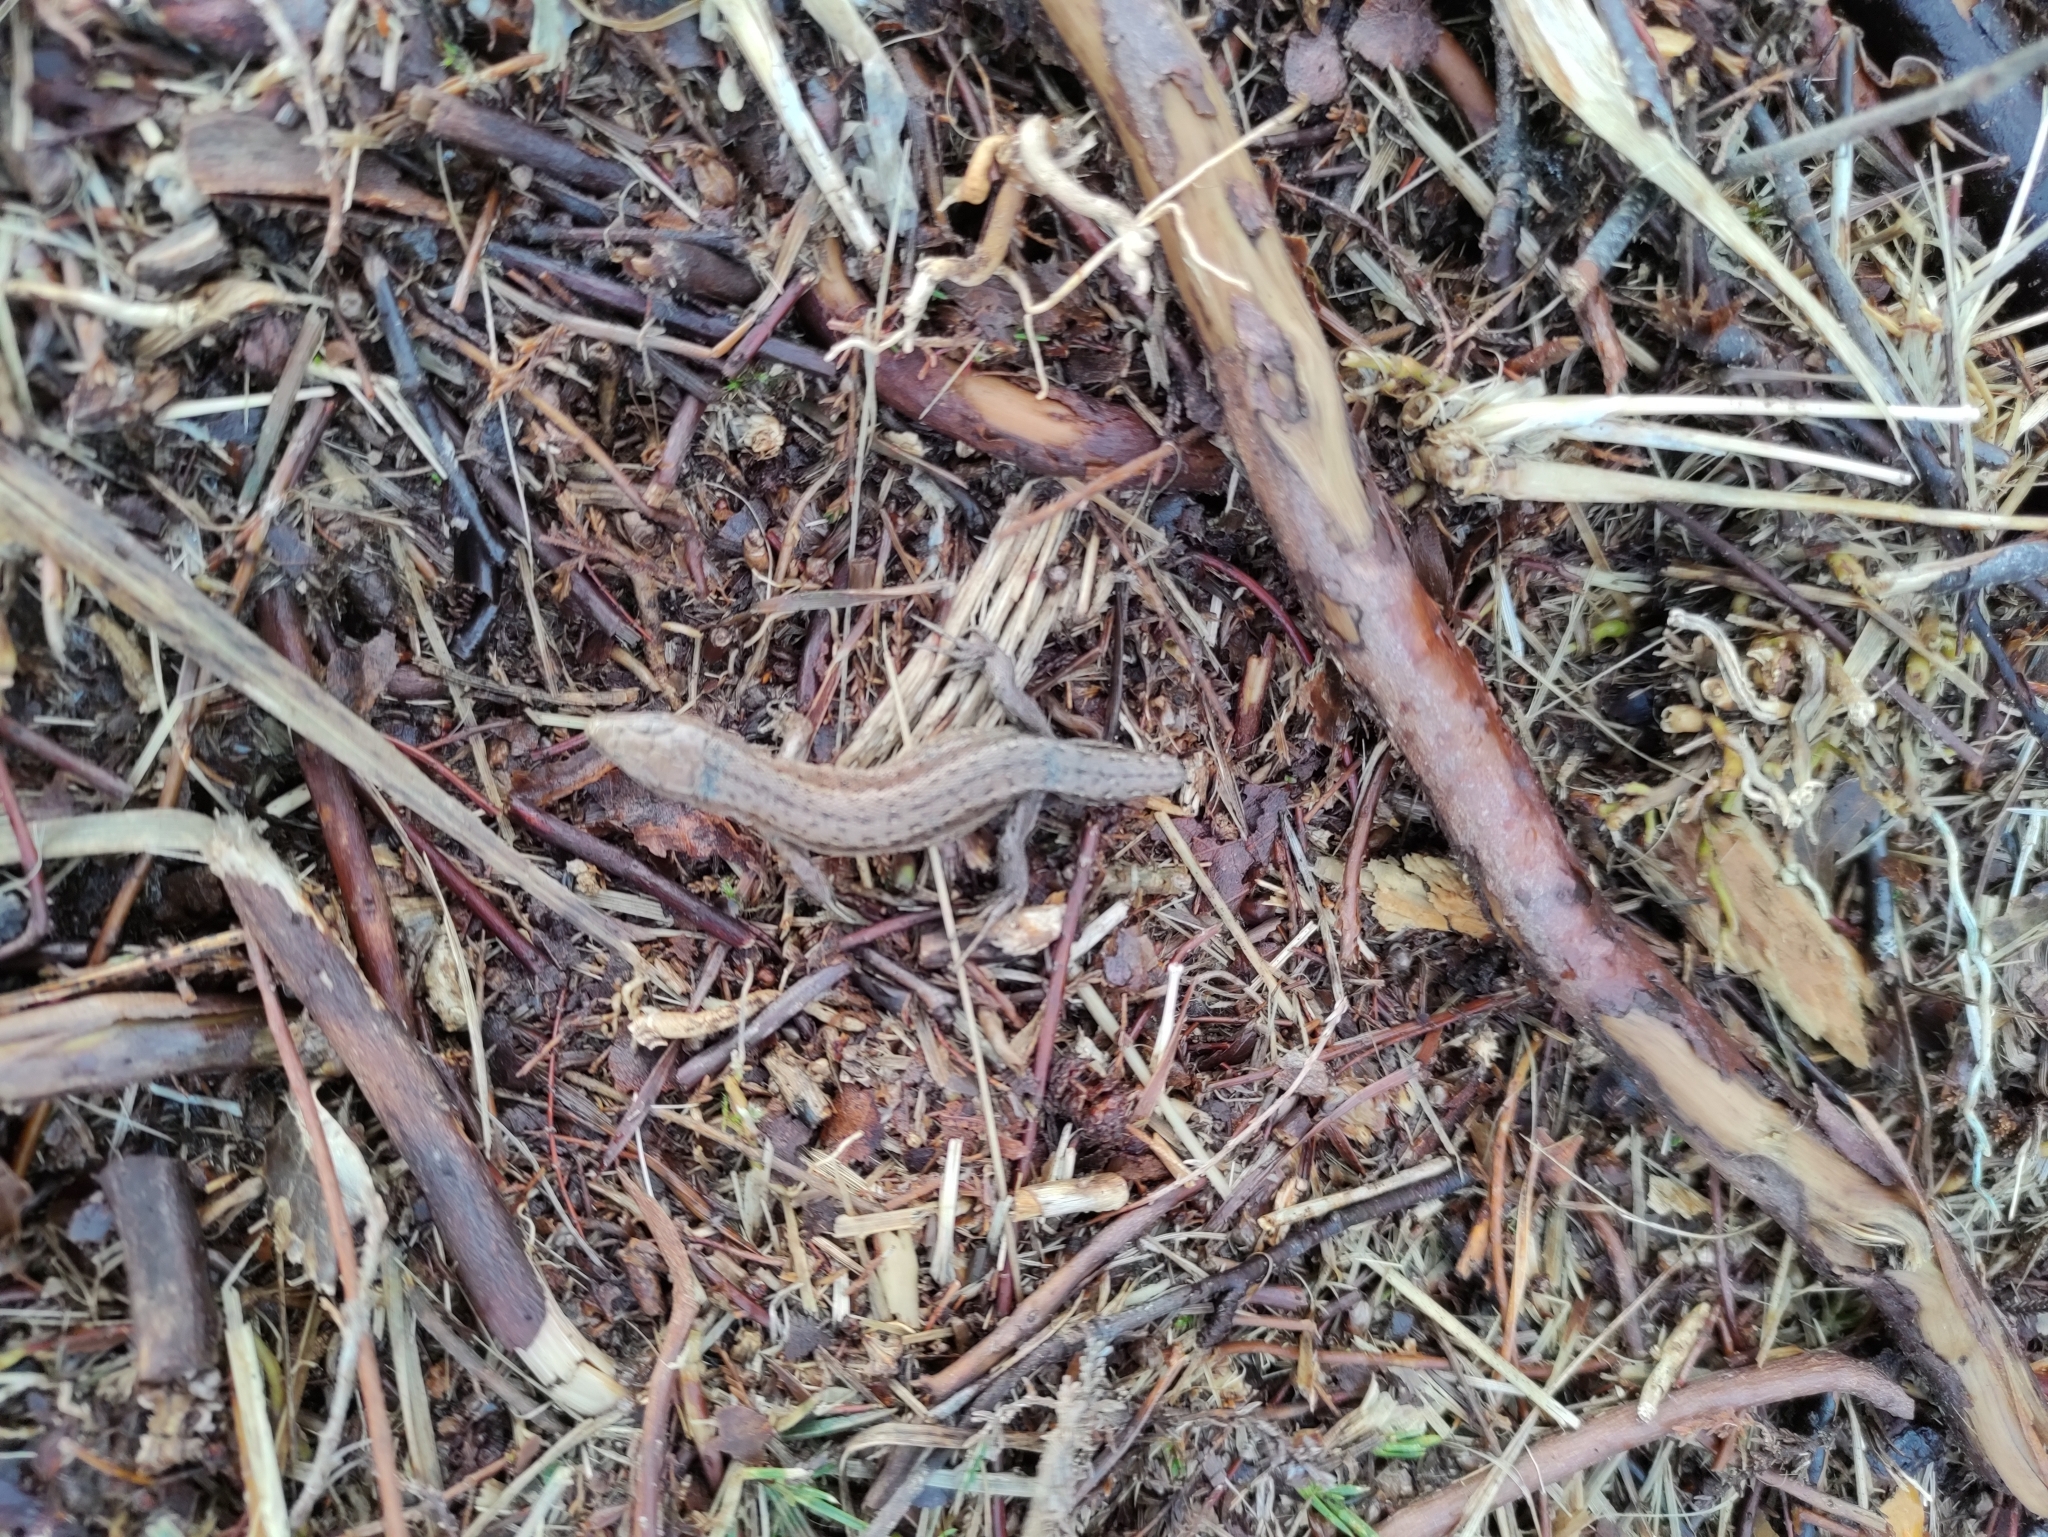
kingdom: Animalia
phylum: Chordata
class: Squamata
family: Lacertidae
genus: Zootoca
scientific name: Zootoca vivipara
